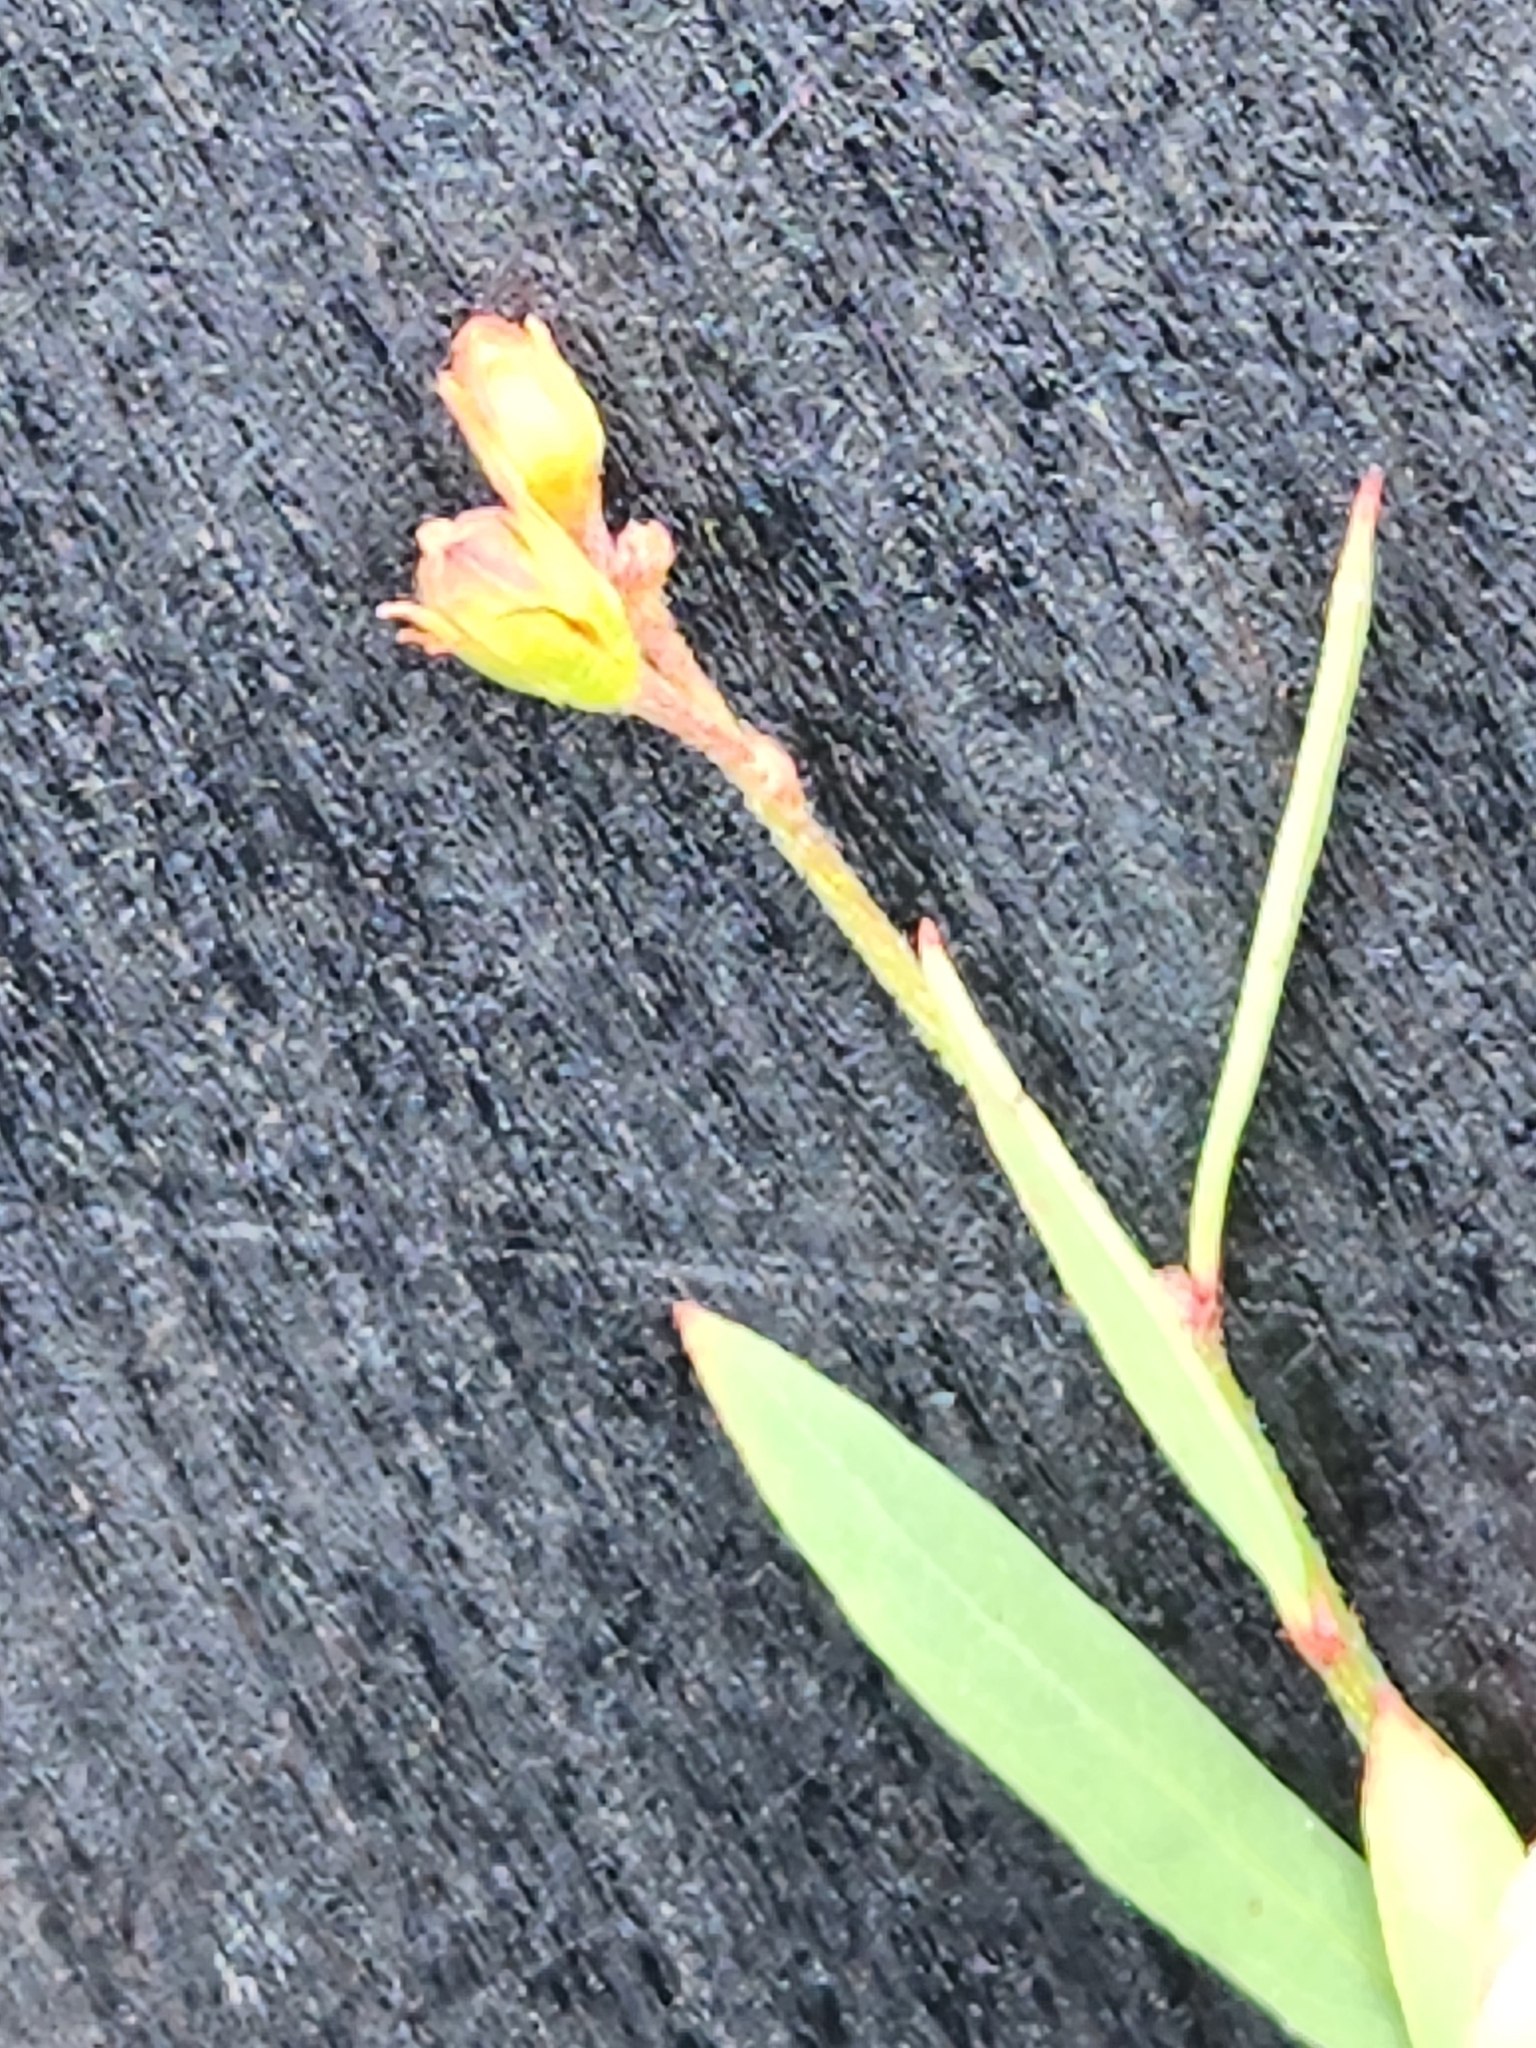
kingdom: Plantae
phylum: Tracheophyta
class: Magnoliopsida
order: Malpighiales
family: Malpighiaceae
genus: Galphimia
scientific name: Galphimia angustifolia
